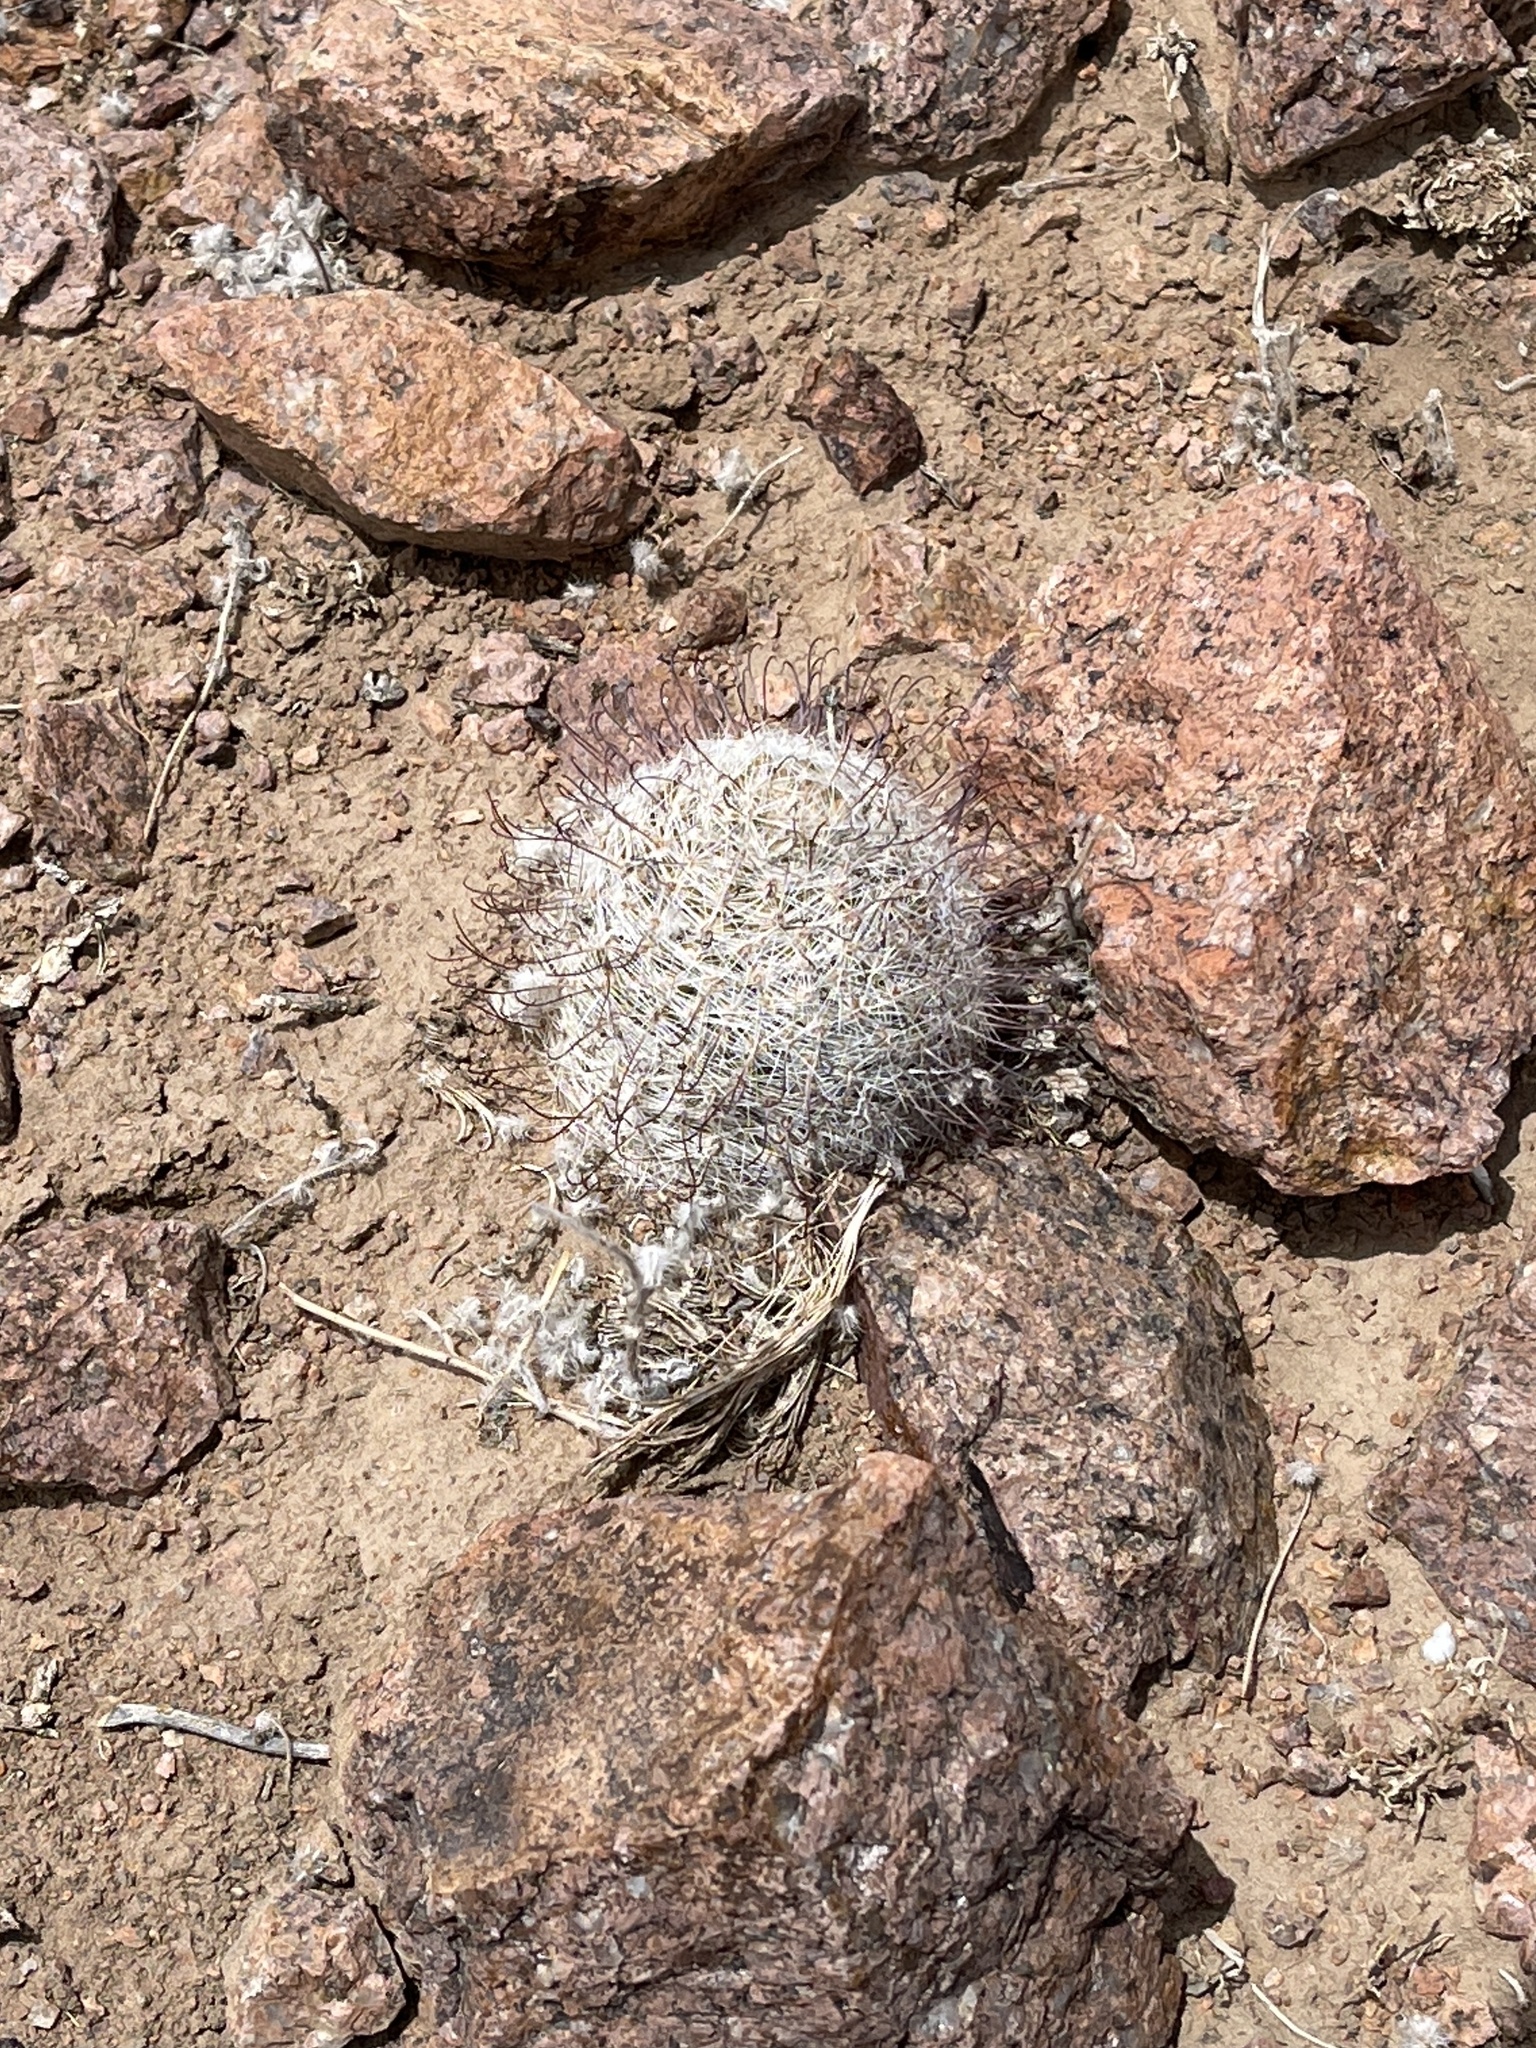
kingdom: Plantae
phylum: Tracheophyta
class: Magnoliopsida
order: Caryophyllales
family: Cactaceae
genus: Cochemiea
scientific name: Cochemiea grahamii
